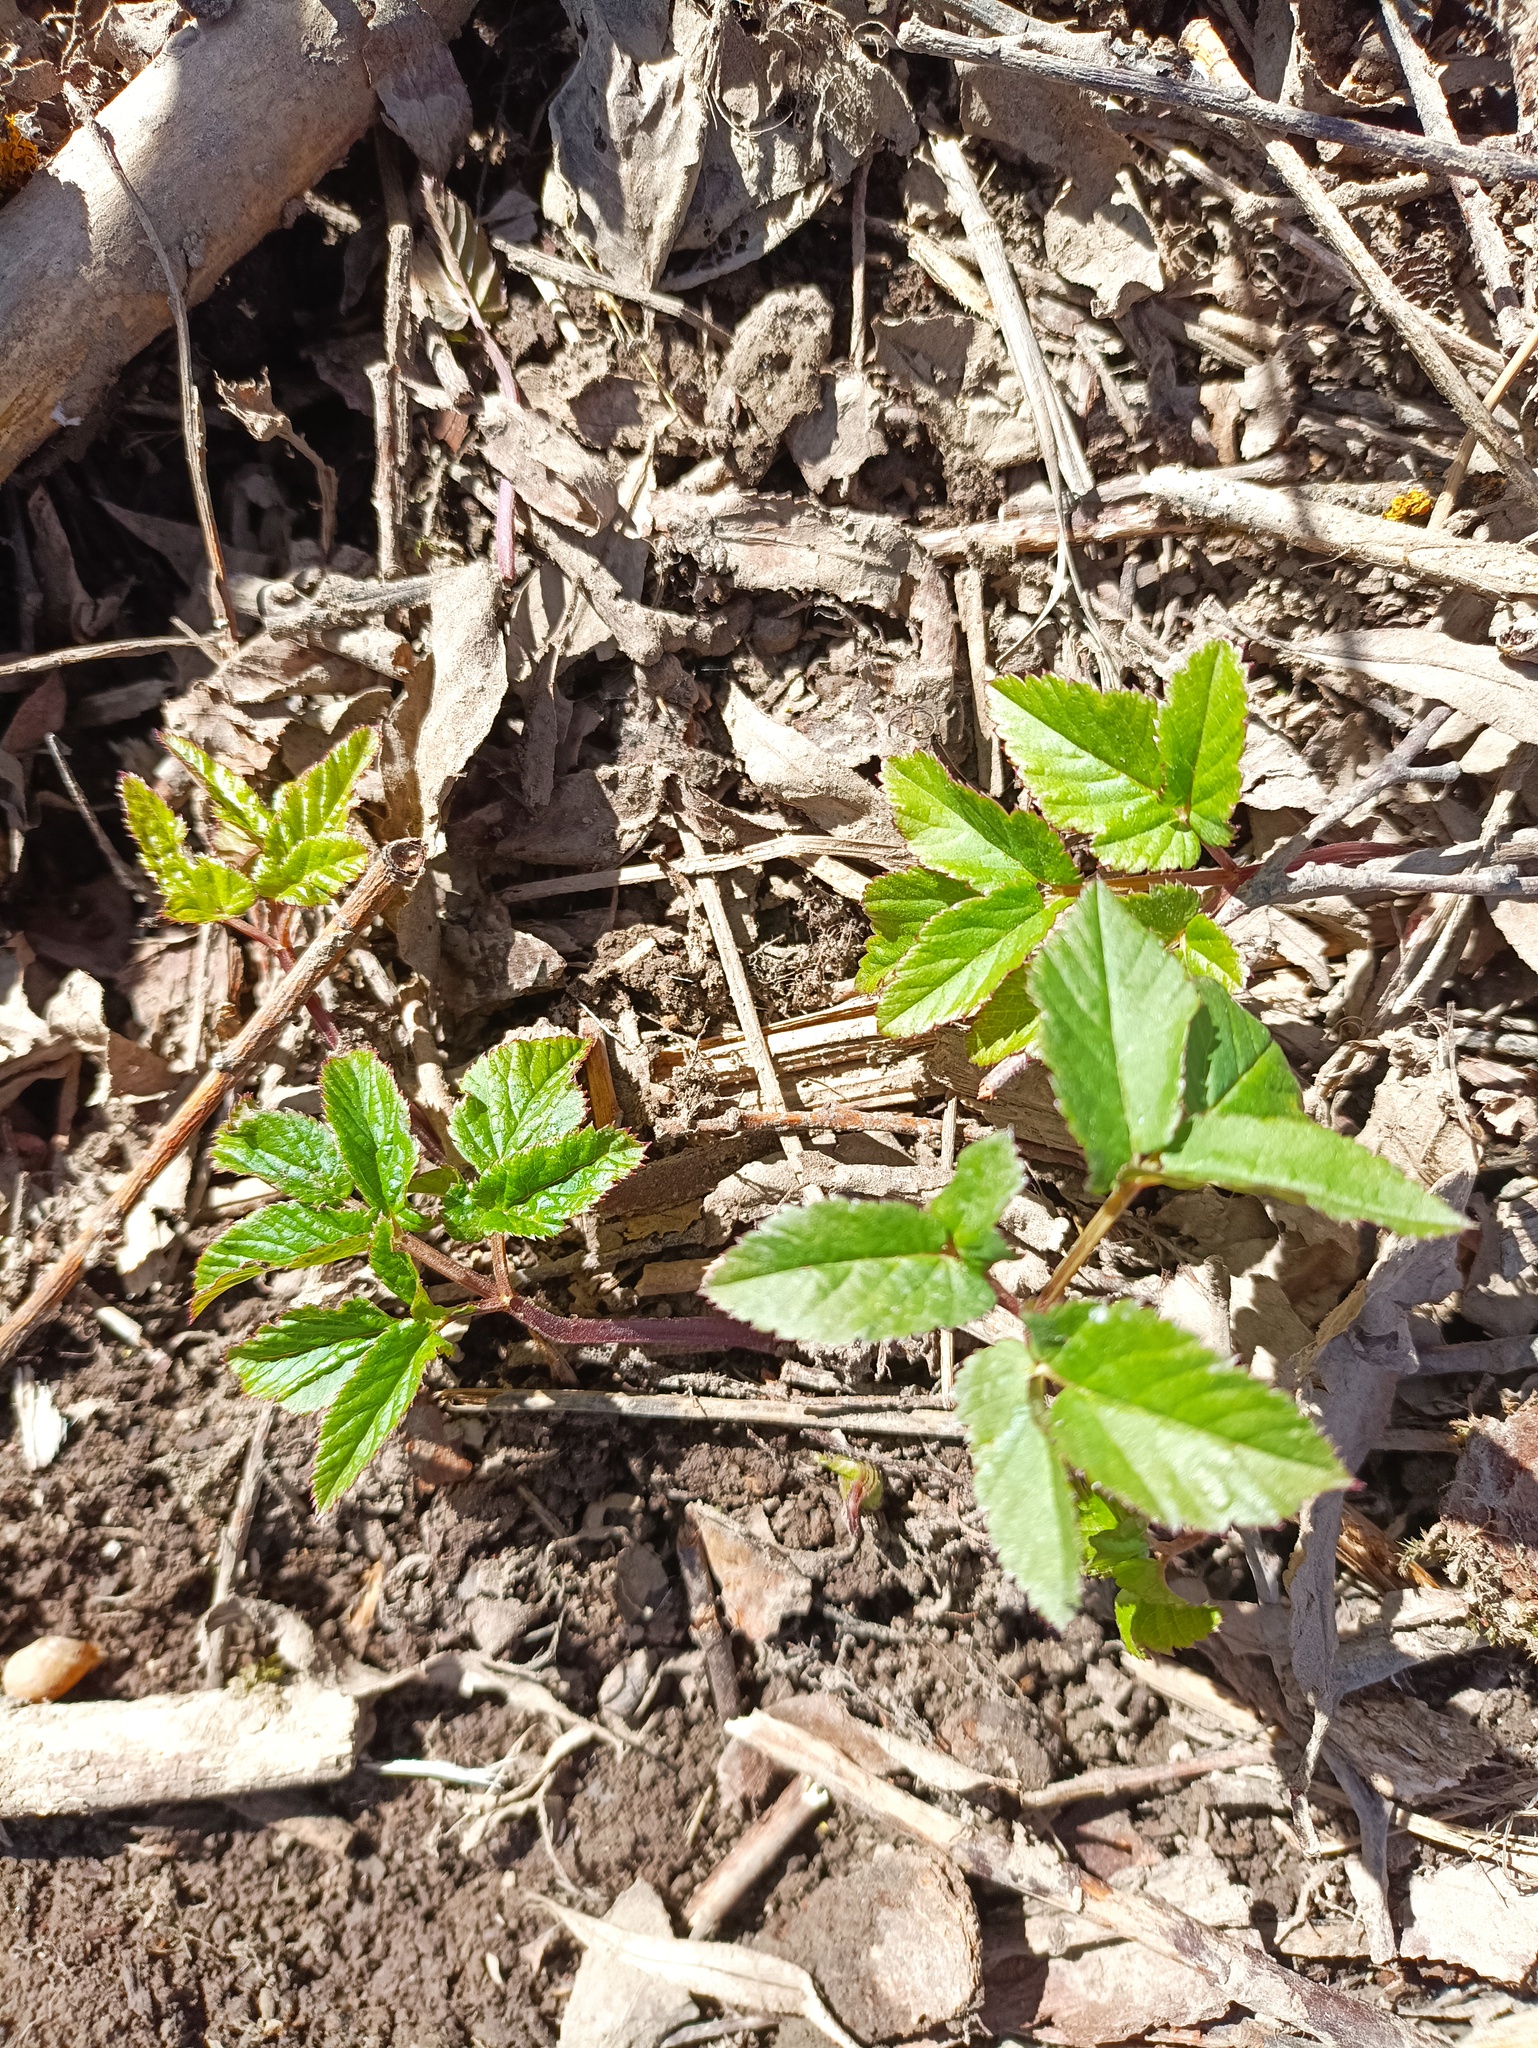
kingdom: Plantae
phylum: Tracheophyta
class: Magnoliopsida
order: Apiales
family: Apiaceae
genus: Aegopodium
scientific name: Aegopodium podagraria
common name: Ground-elder
